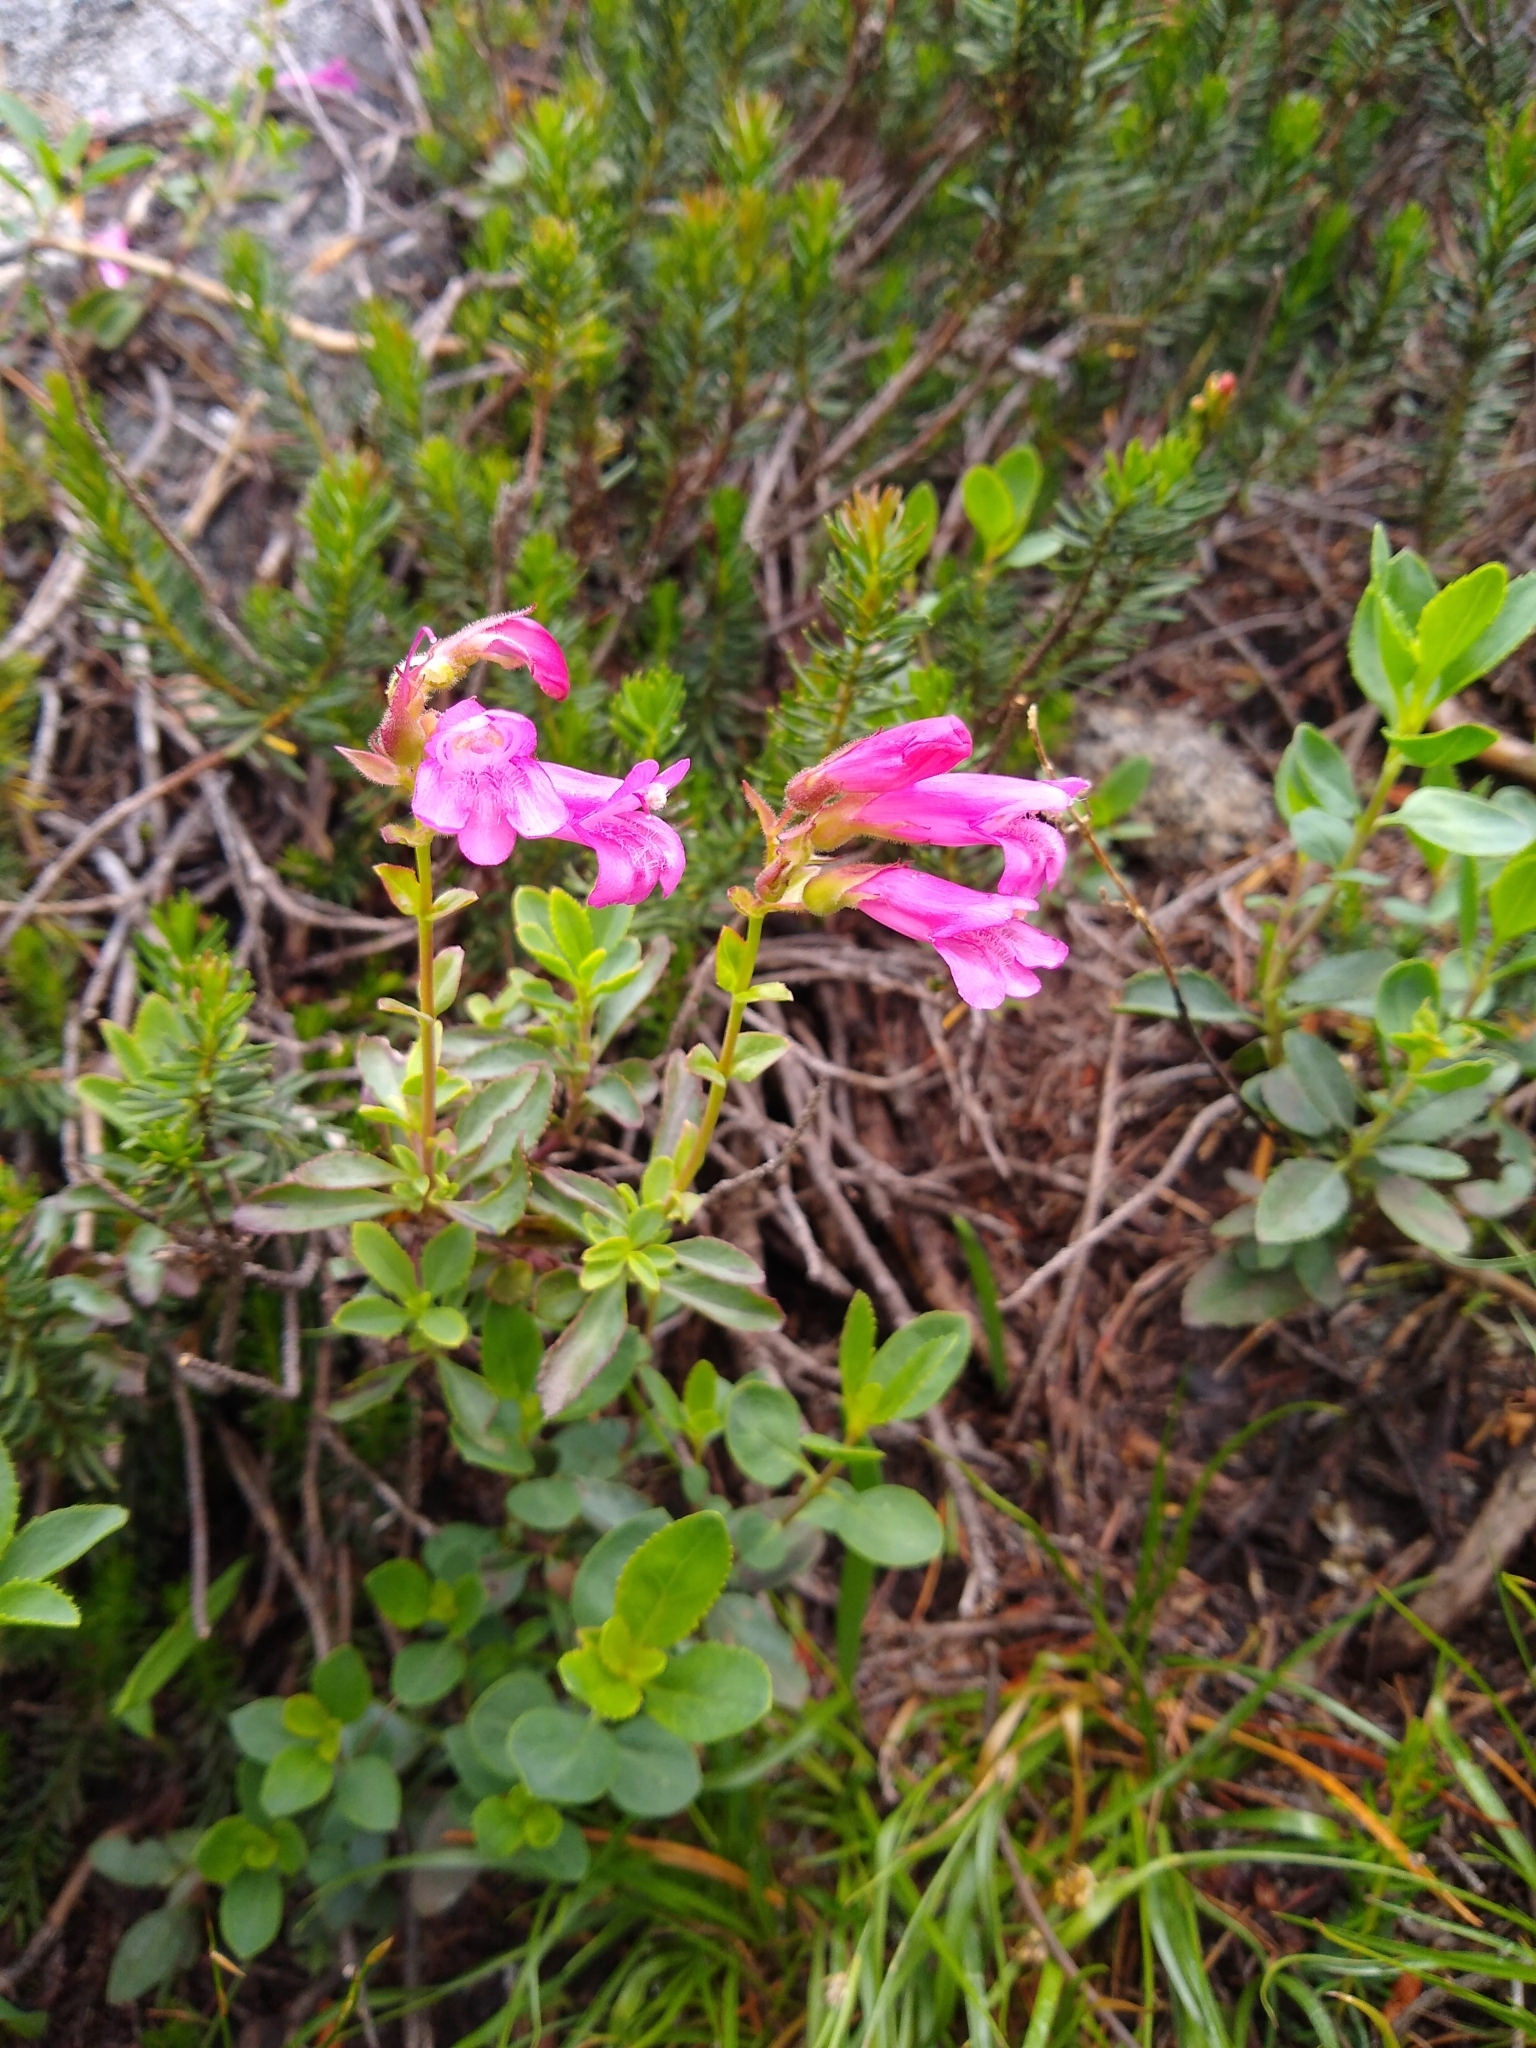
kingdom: Plantae
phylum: Tracheophyta
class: Magnoliopsida
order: Lamiales
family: Plantaginaceae
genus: Penstemon
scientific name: Penstemon newberryi
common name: Mountain-pride
